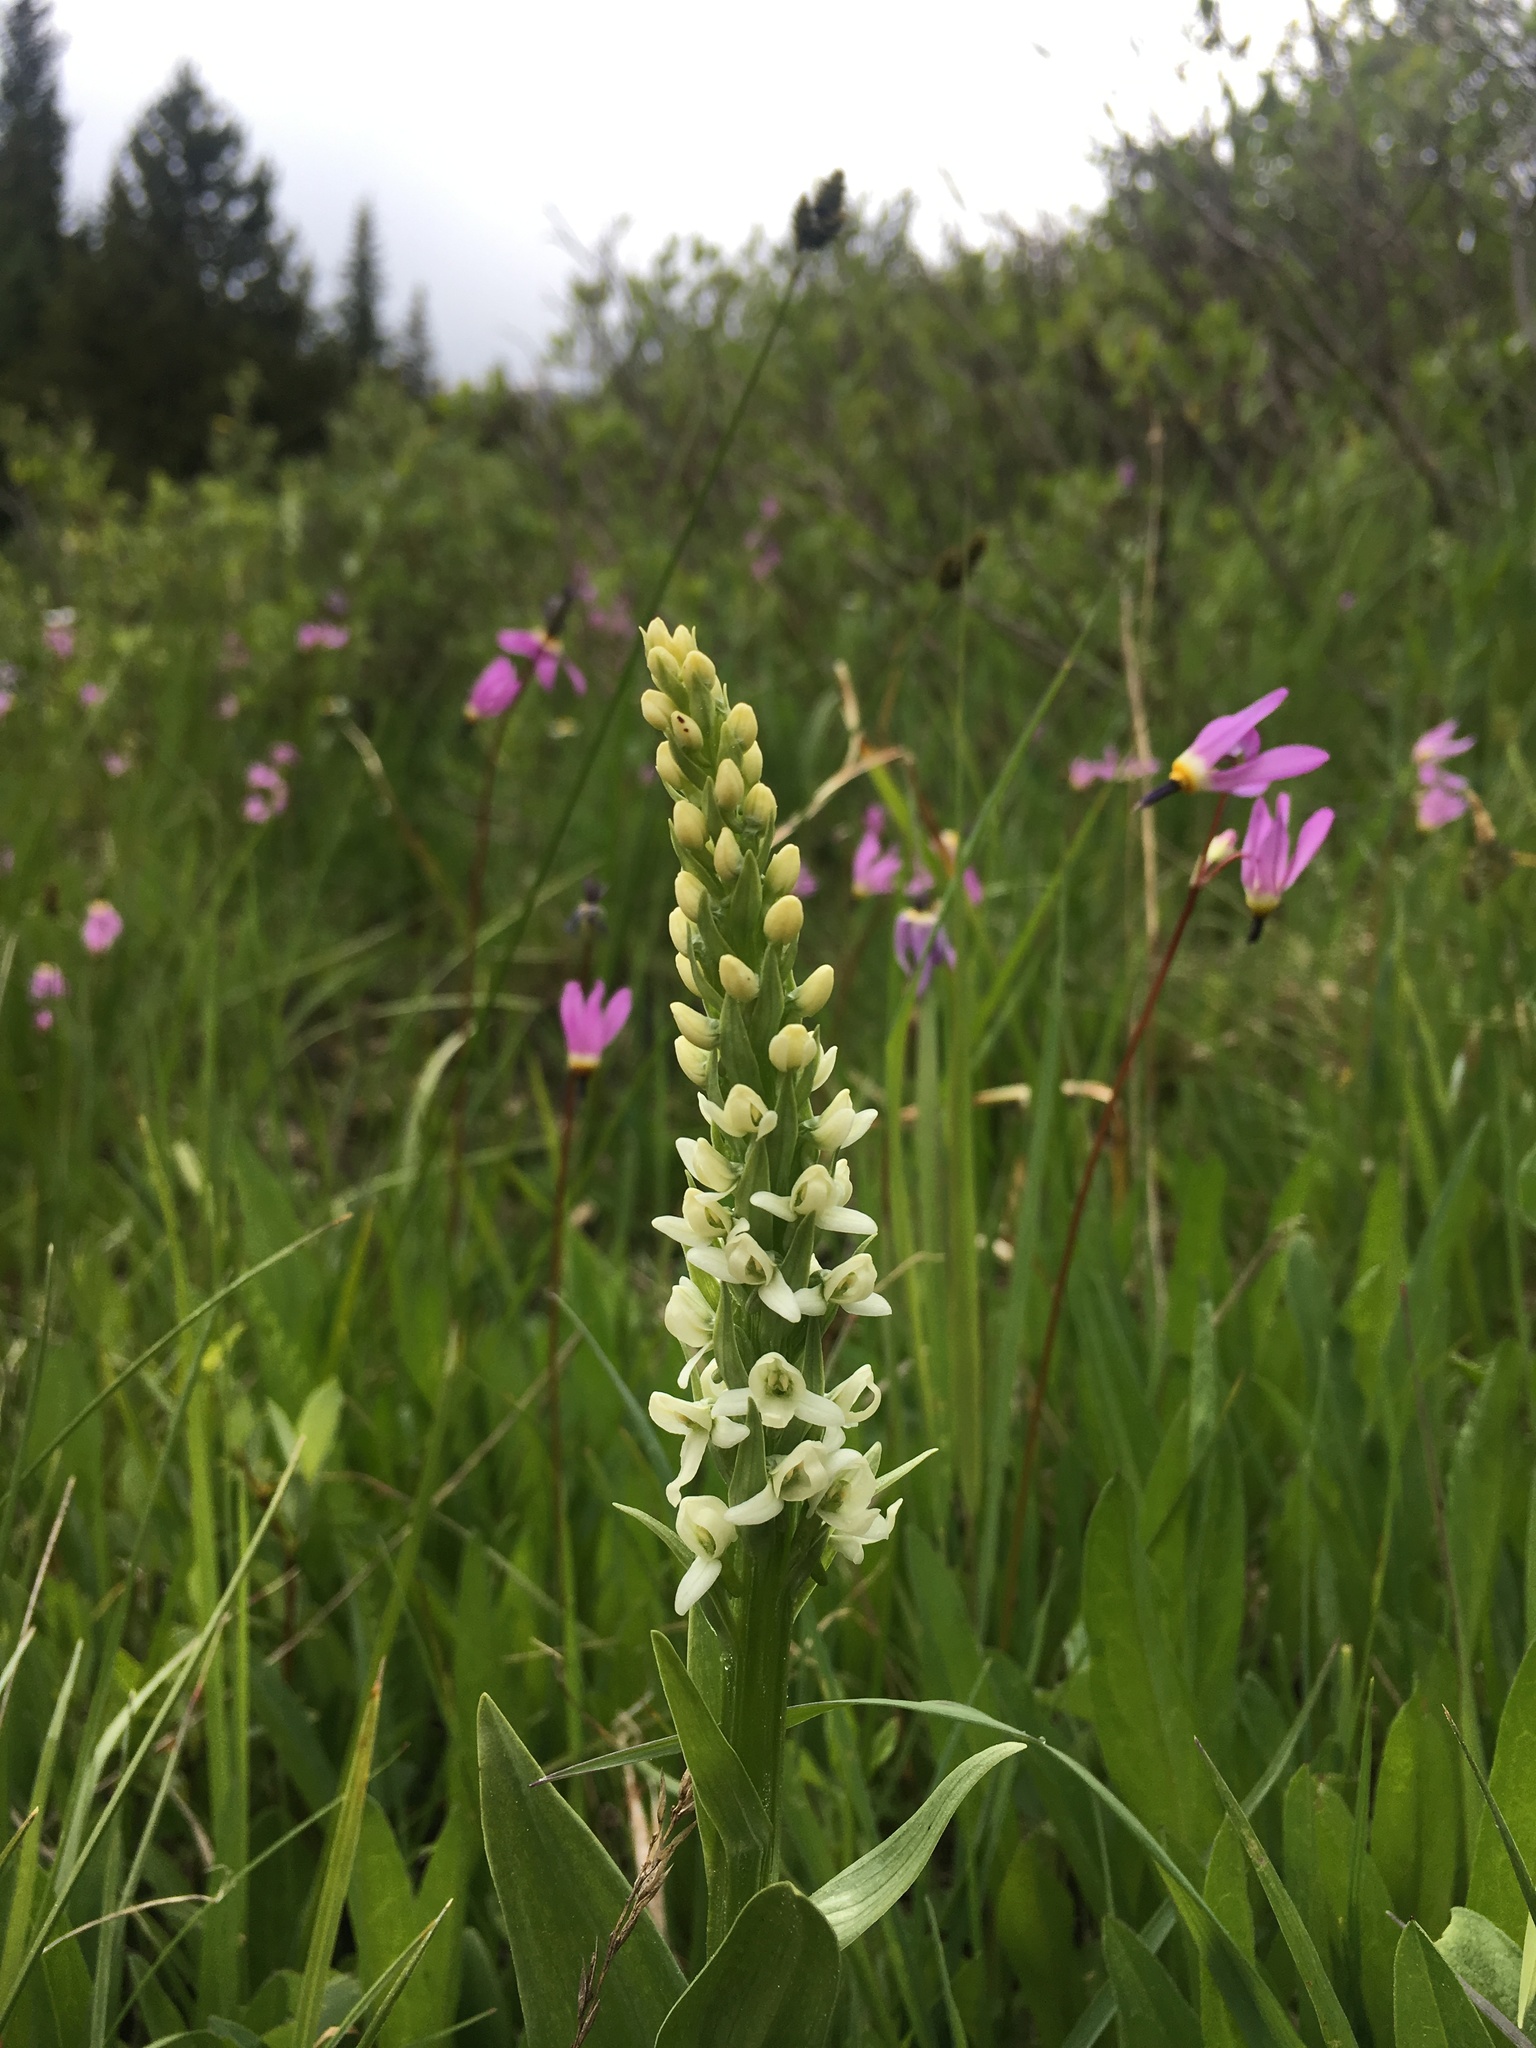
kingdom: Plantae
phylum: Tracheophyta
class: Liliopsida
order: Asparagales
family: Orchidaceae
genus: Platanthera
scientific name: Platanthera dilatata
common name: Bog candles
